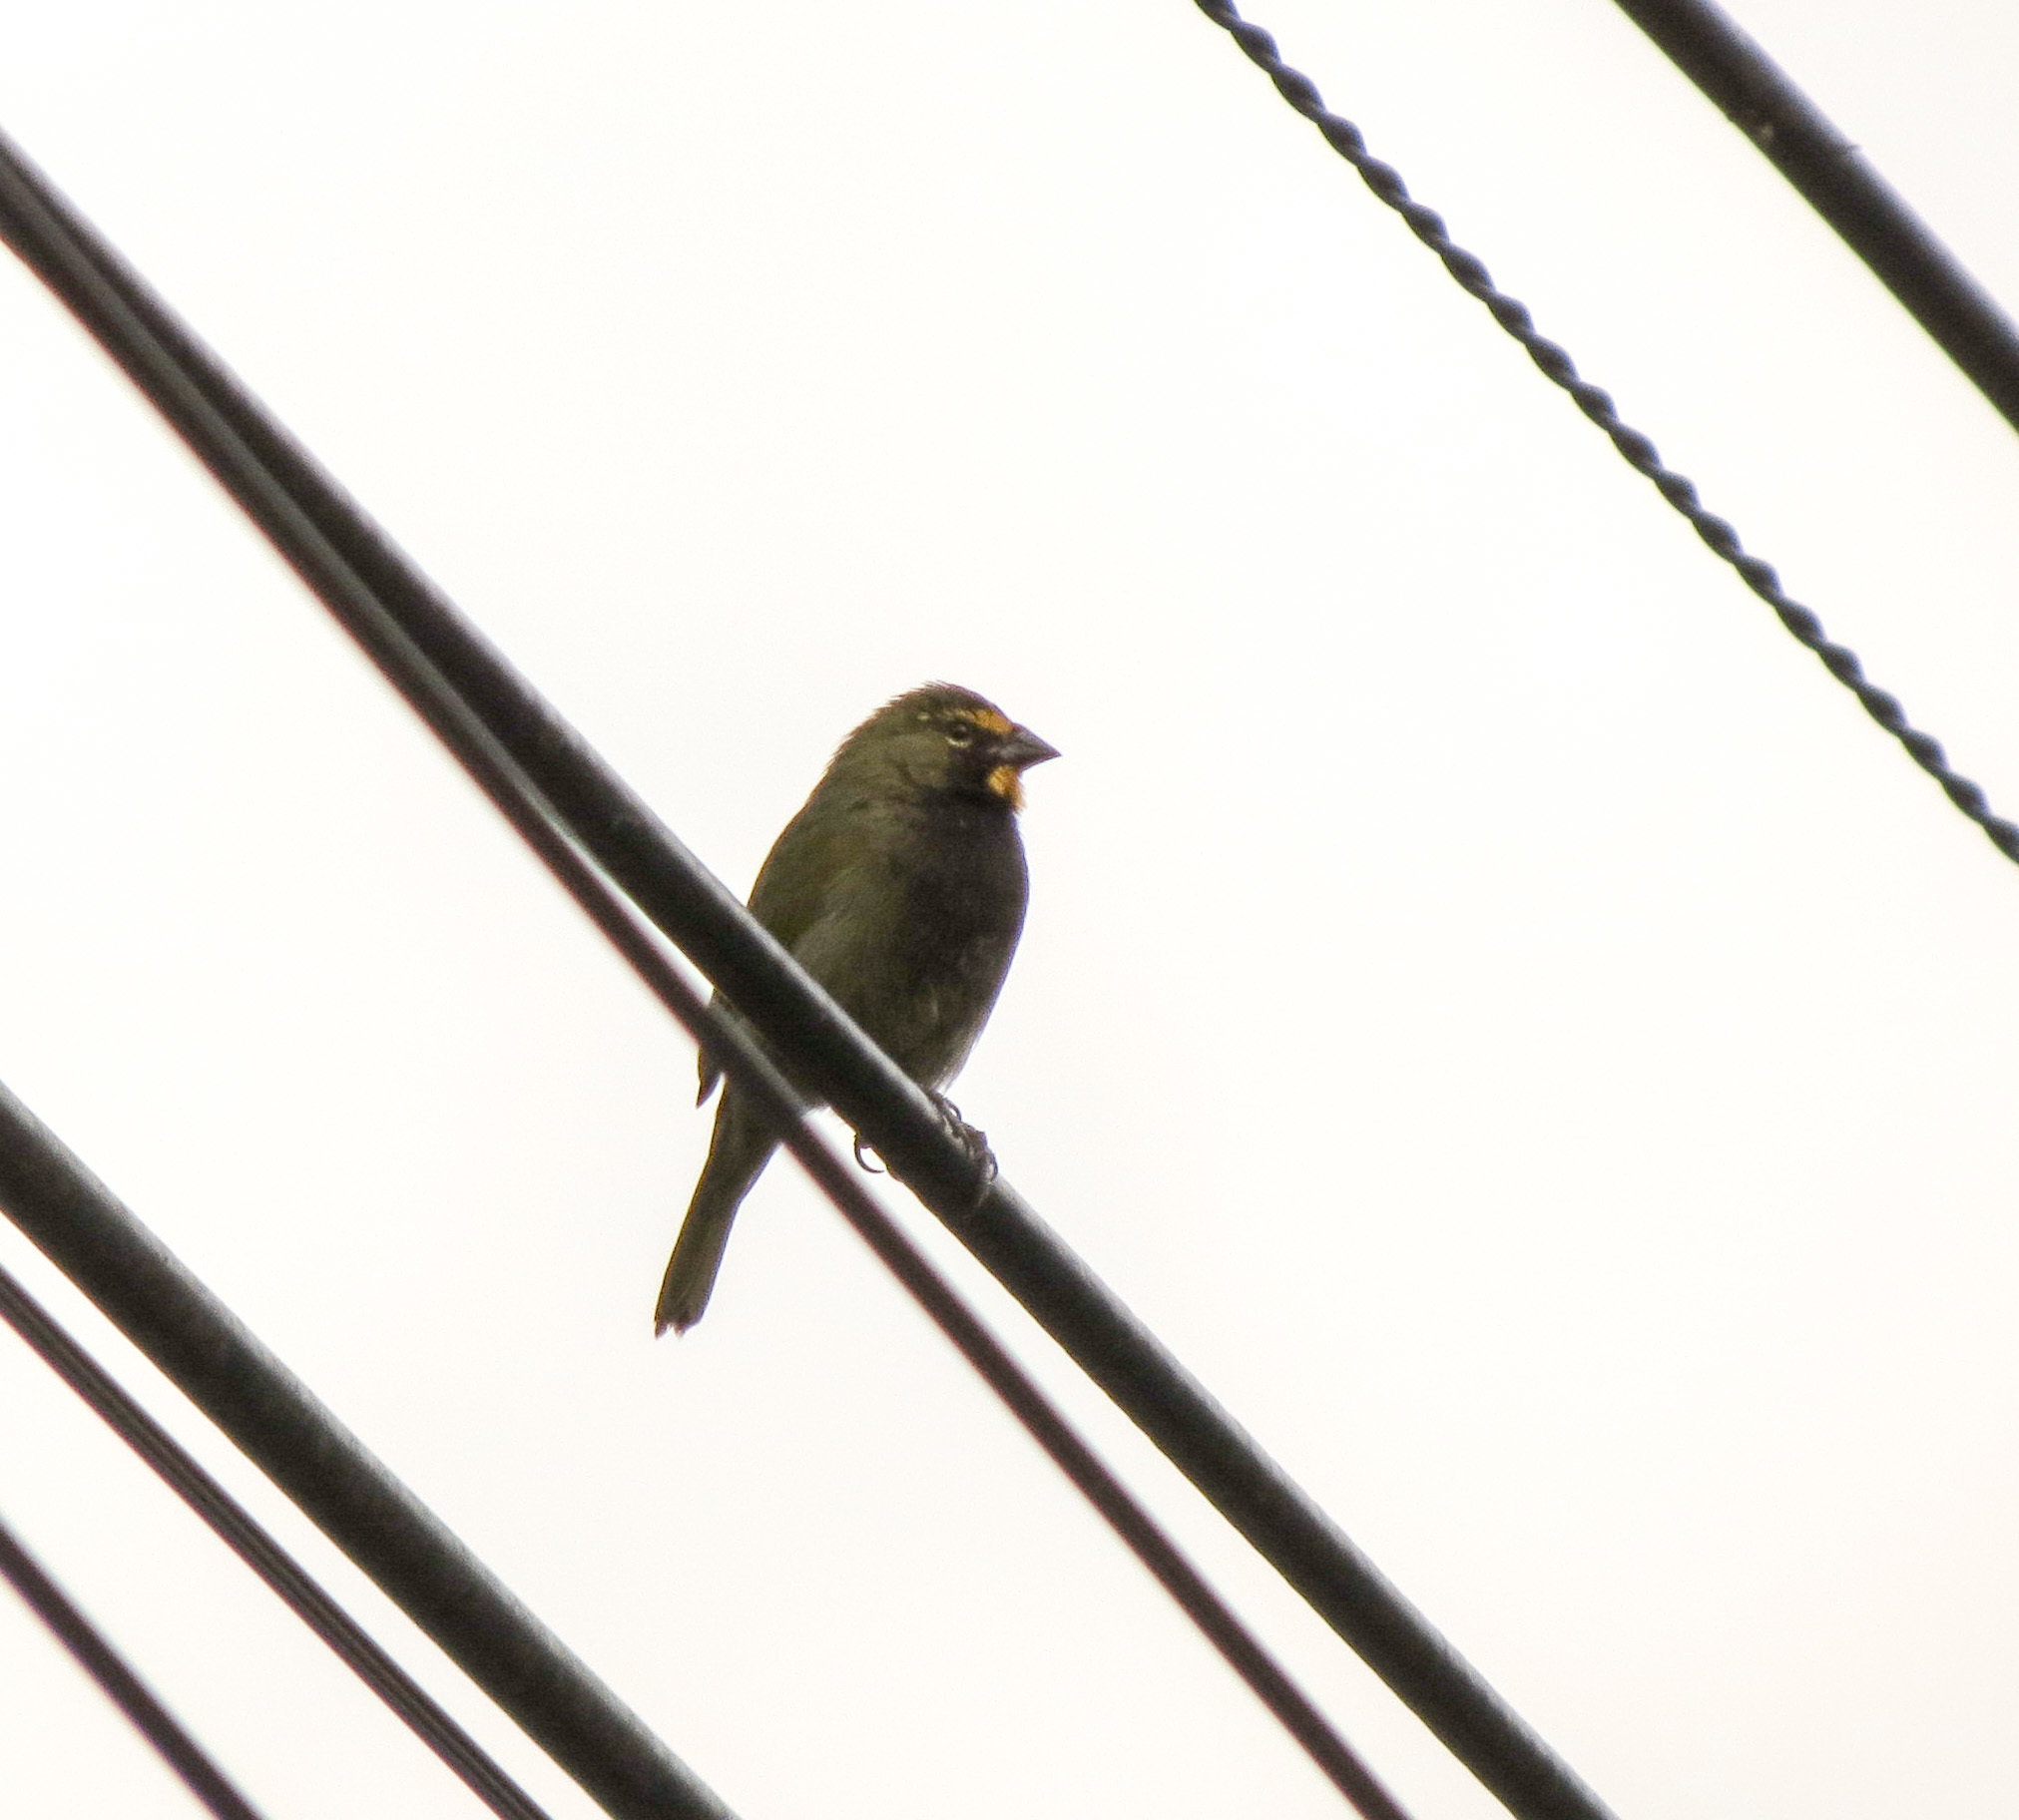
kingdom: Animalia
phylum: Chordata
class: Aves
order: Passeriformes
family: Thraupidae
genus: Tiaris
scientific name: Tiaris olivaceus
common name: Yellow-faced grassquit
